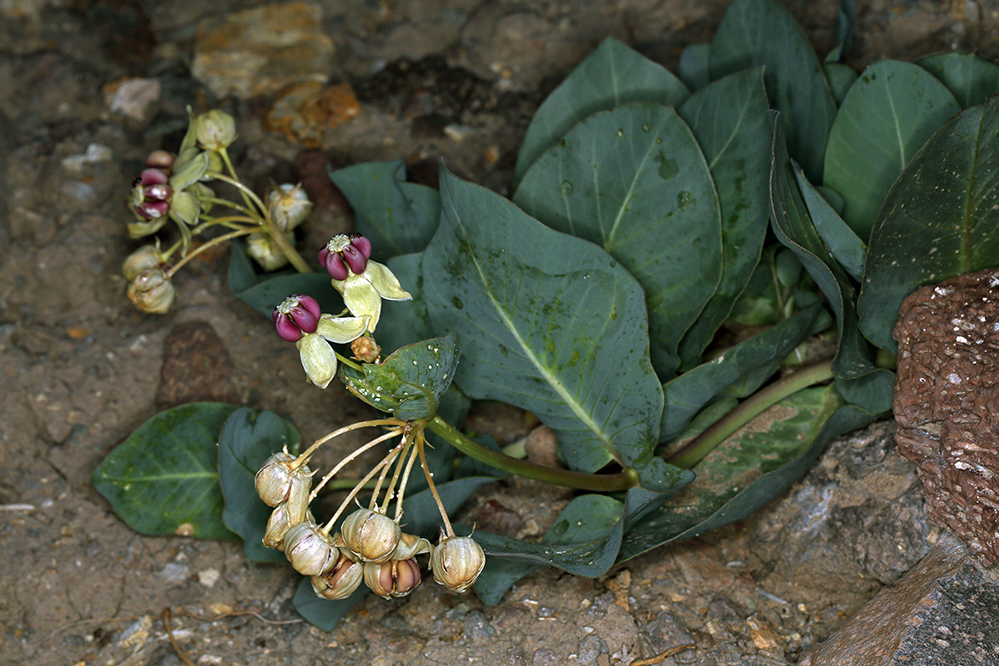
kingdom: Plantae
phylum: Tracheophyta
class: Magnoliopsida
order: Gentianales
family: Apocynaceae
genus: Asclepias
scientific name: Asclepias cryptoceras
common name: Humboldt mountains milkweed
